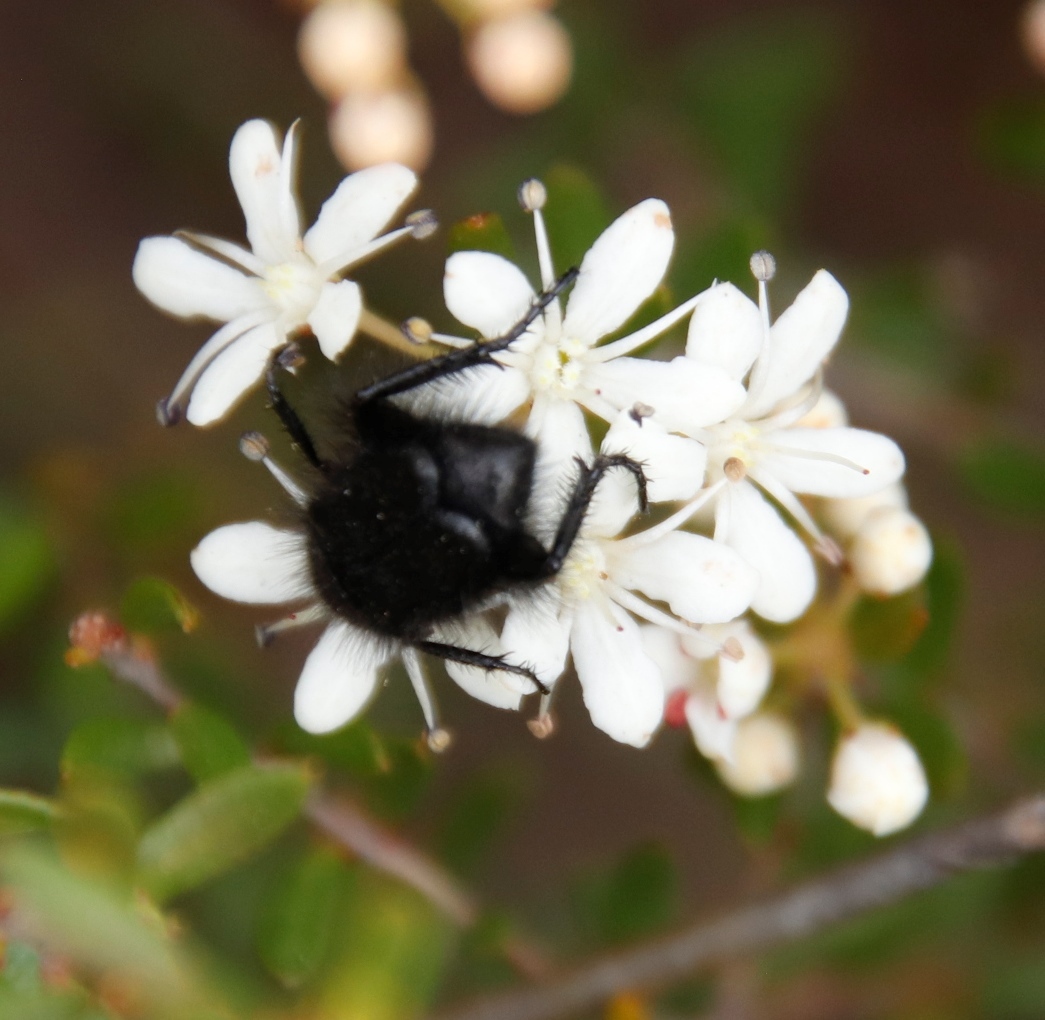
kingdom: Plantae
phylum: Tracheophyta
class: Magnoliopsida
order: Sapindales
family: Rutaceae
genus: Agathosma
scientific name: Agathosma mundtii
